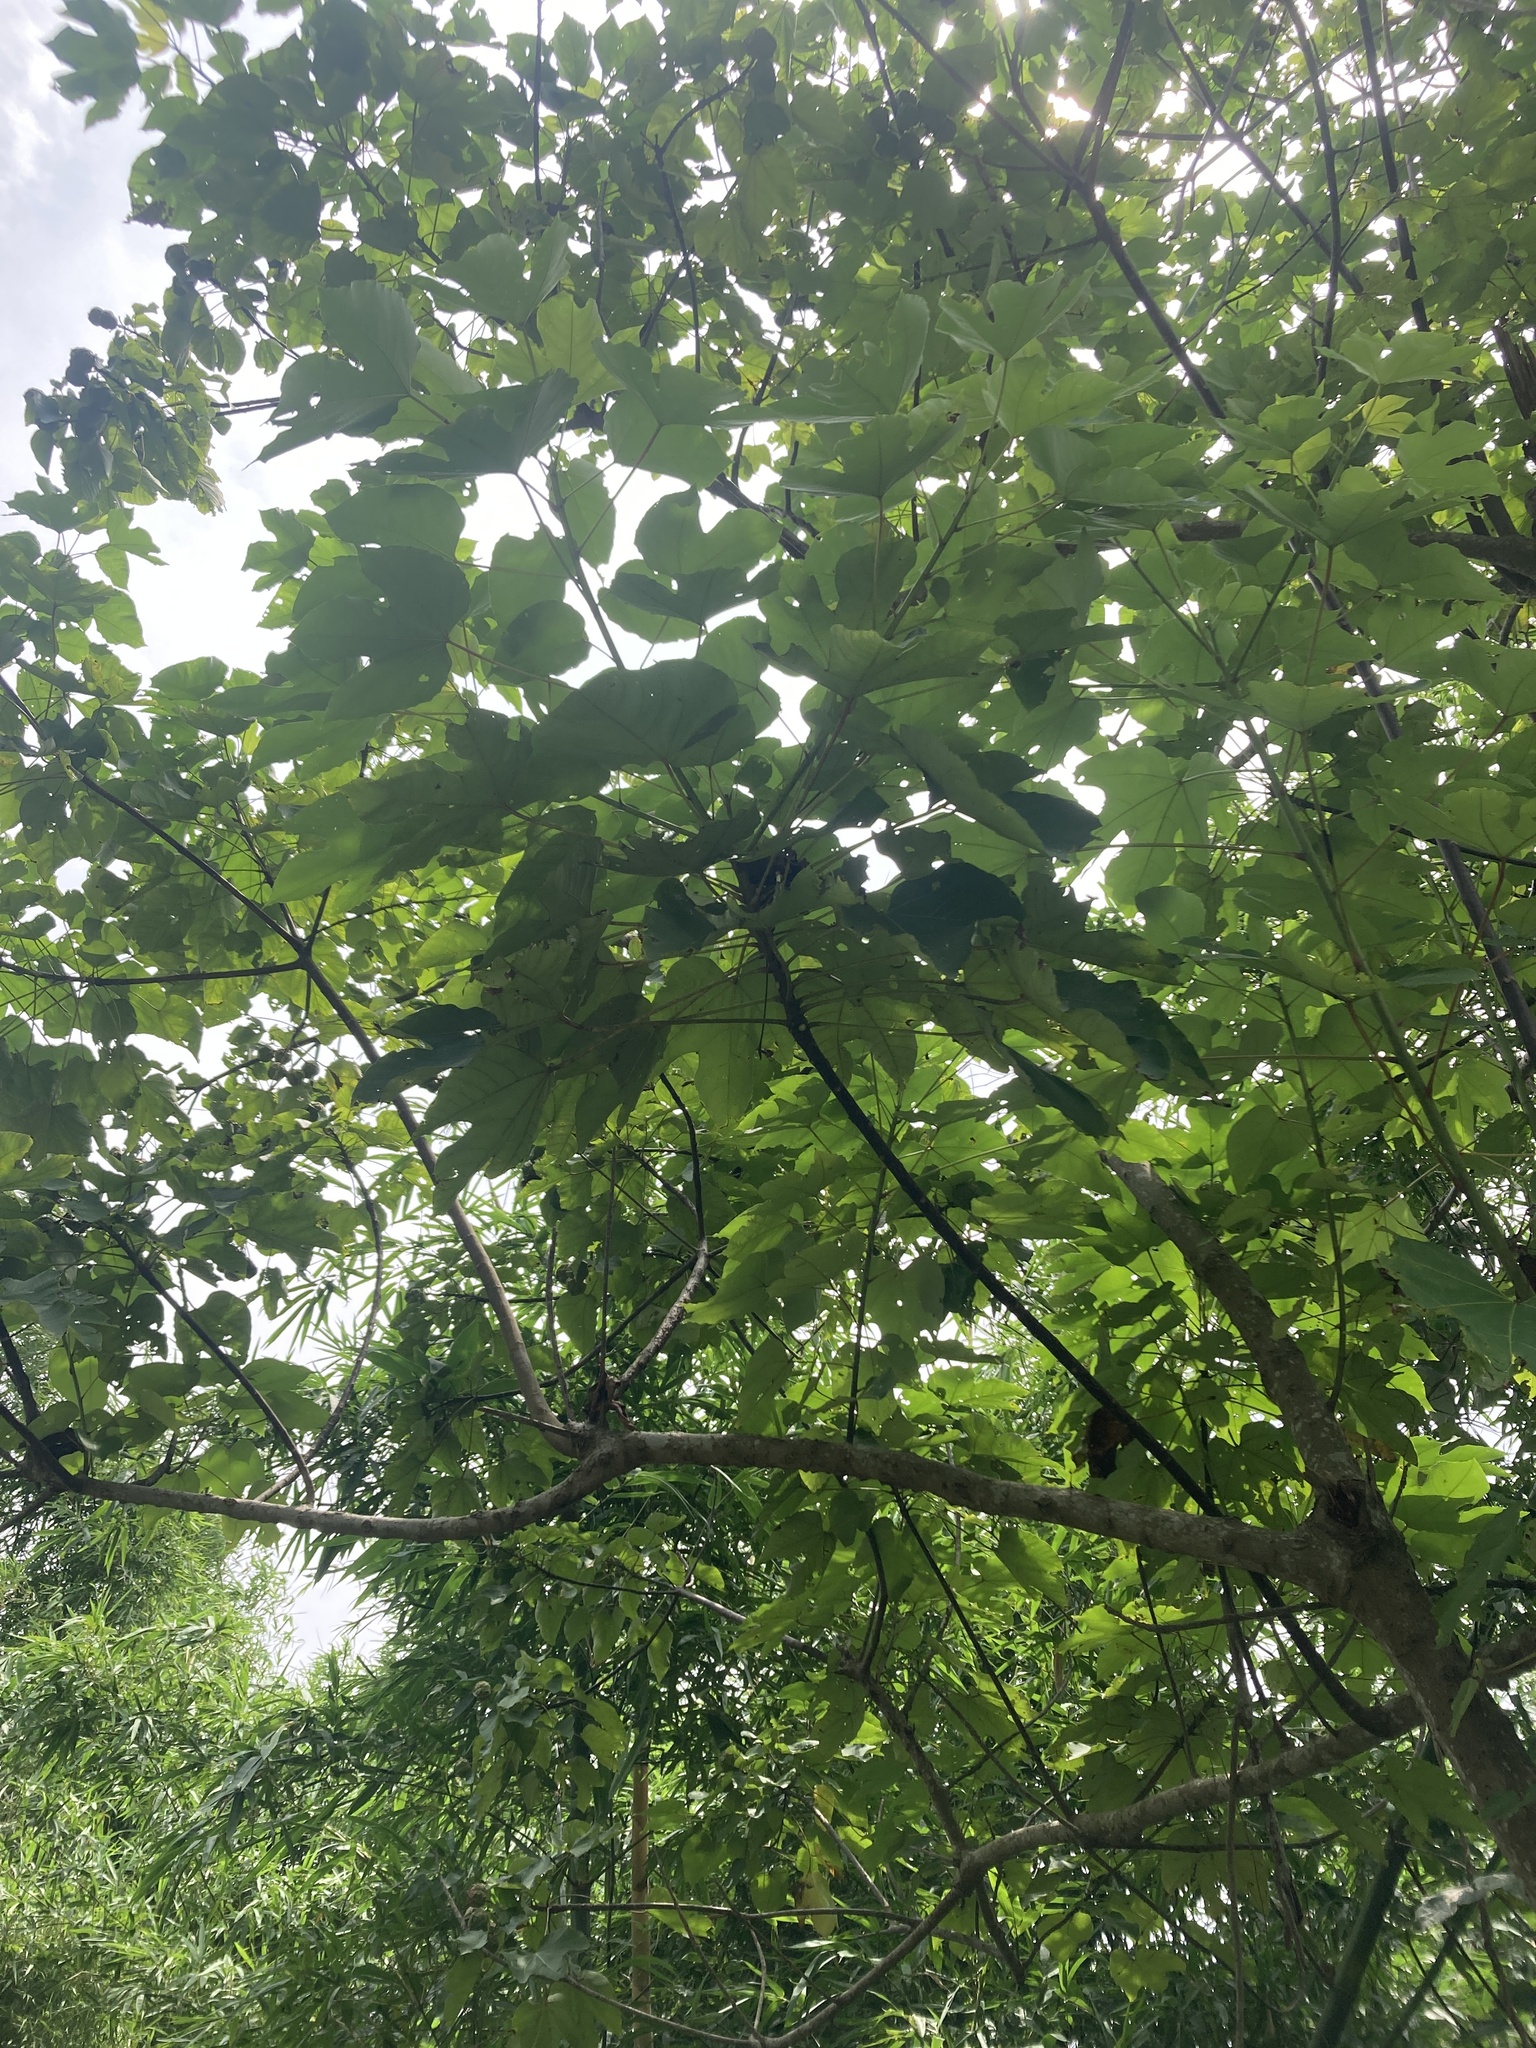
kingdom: Plantae
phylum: Tracheophyta
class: Magnoliopsida
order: Malpighiales
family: Euphorbiaceae
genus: Vernicia
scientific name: Vernicia montana
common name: Mu oil tree
